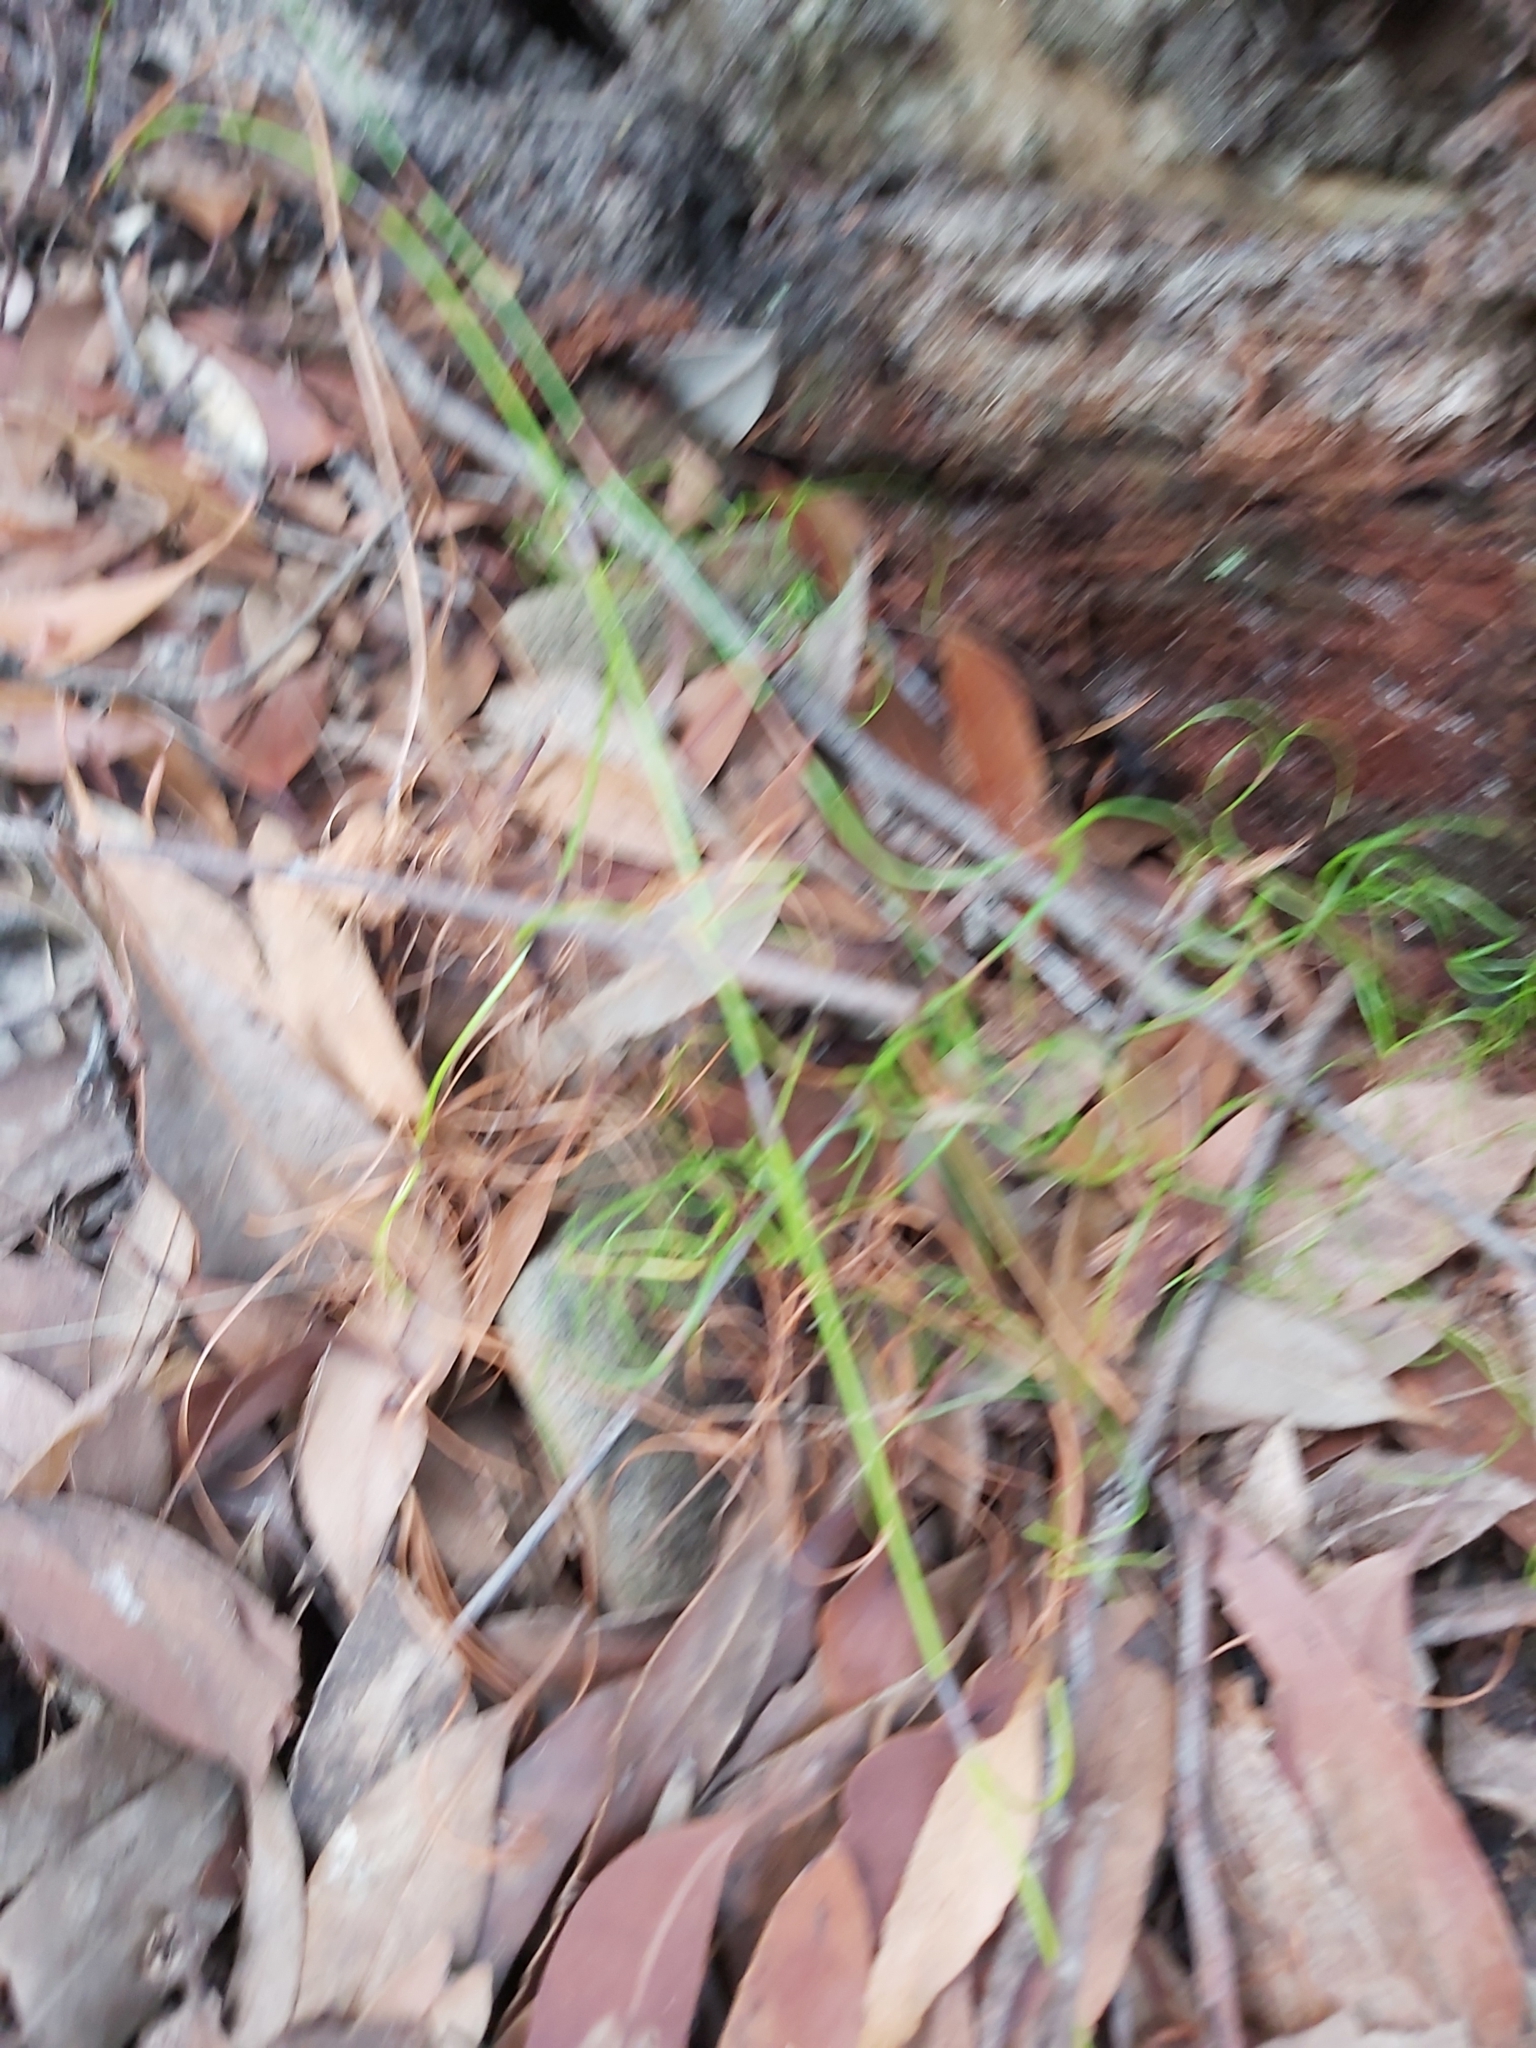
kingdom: Plantae
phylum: Tracheophyta
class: Liliopsida
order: Poales
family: Cyperaceae
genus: Caustis
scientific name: Caustis flexuosa
